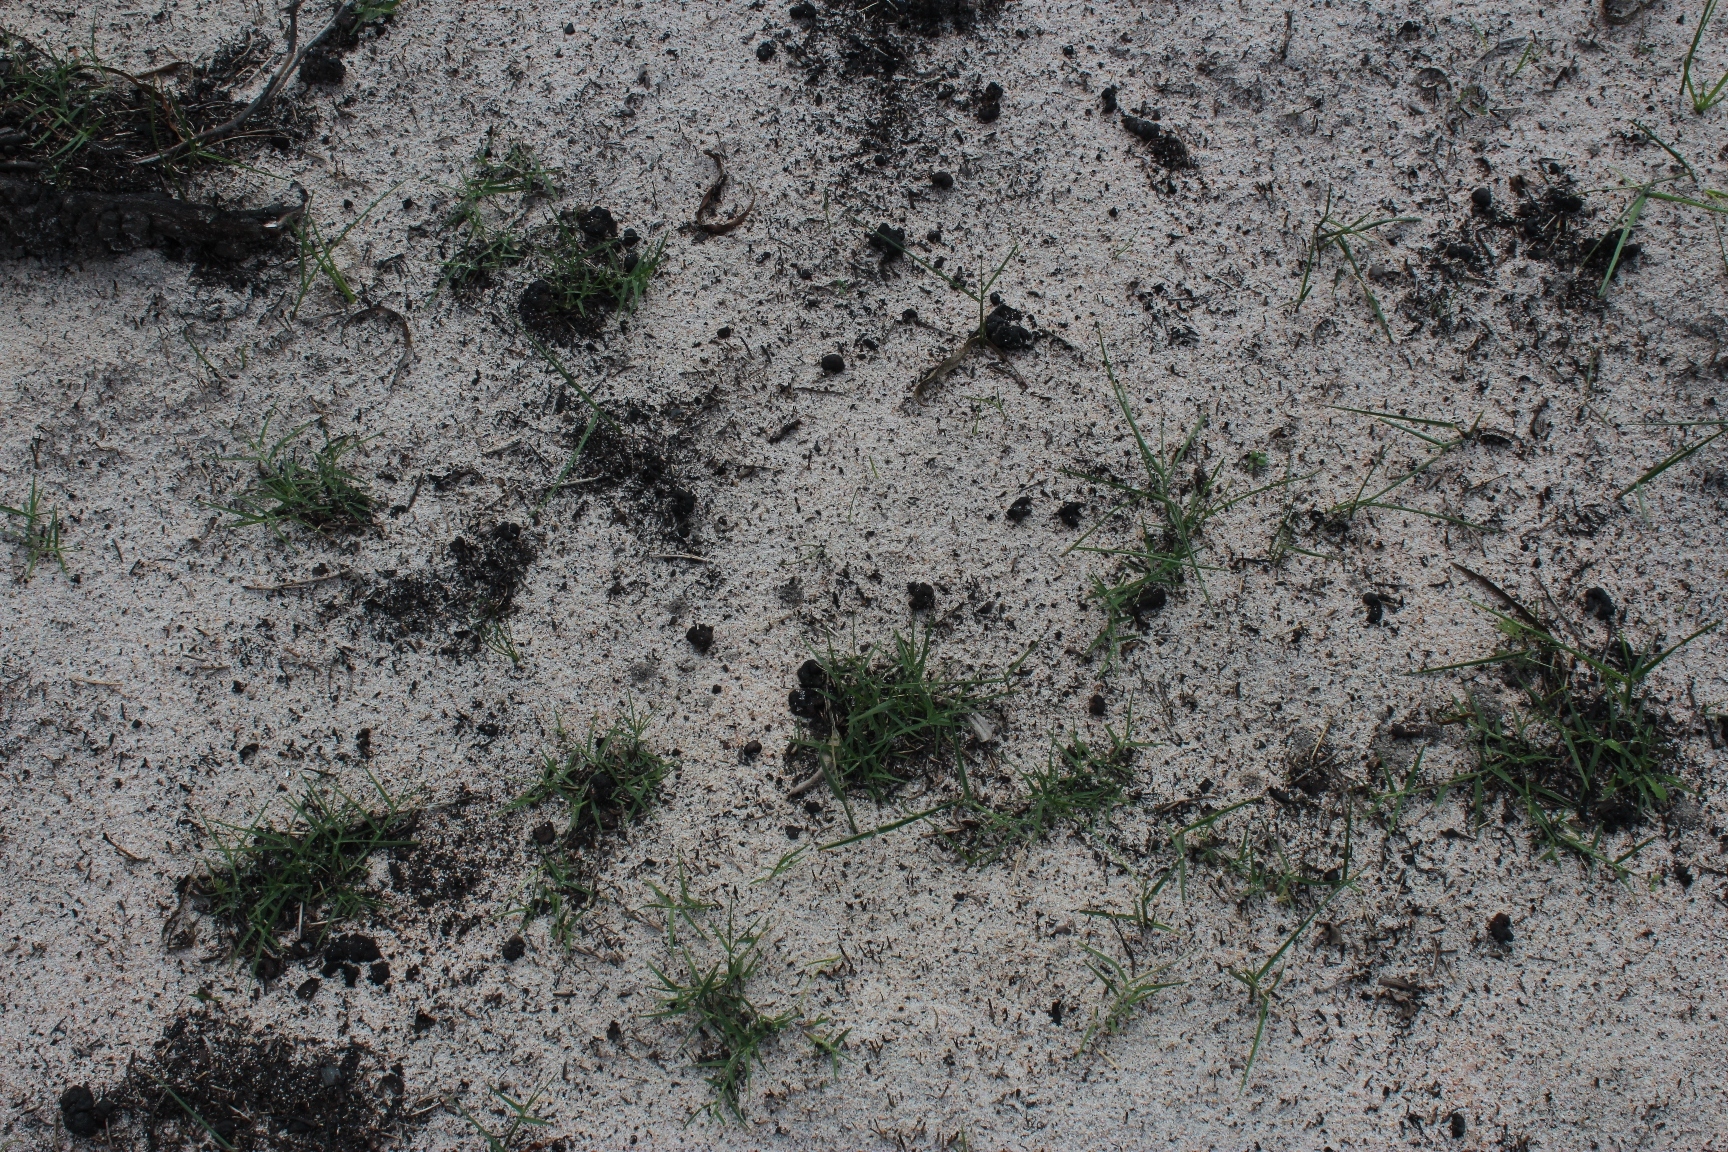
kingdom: Plantae
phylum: Tracheophyta
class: Liliopsida
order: Poales
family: Poaceae
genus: Cynodon
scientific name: Cynodon dactylon
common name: Bermuda grass
